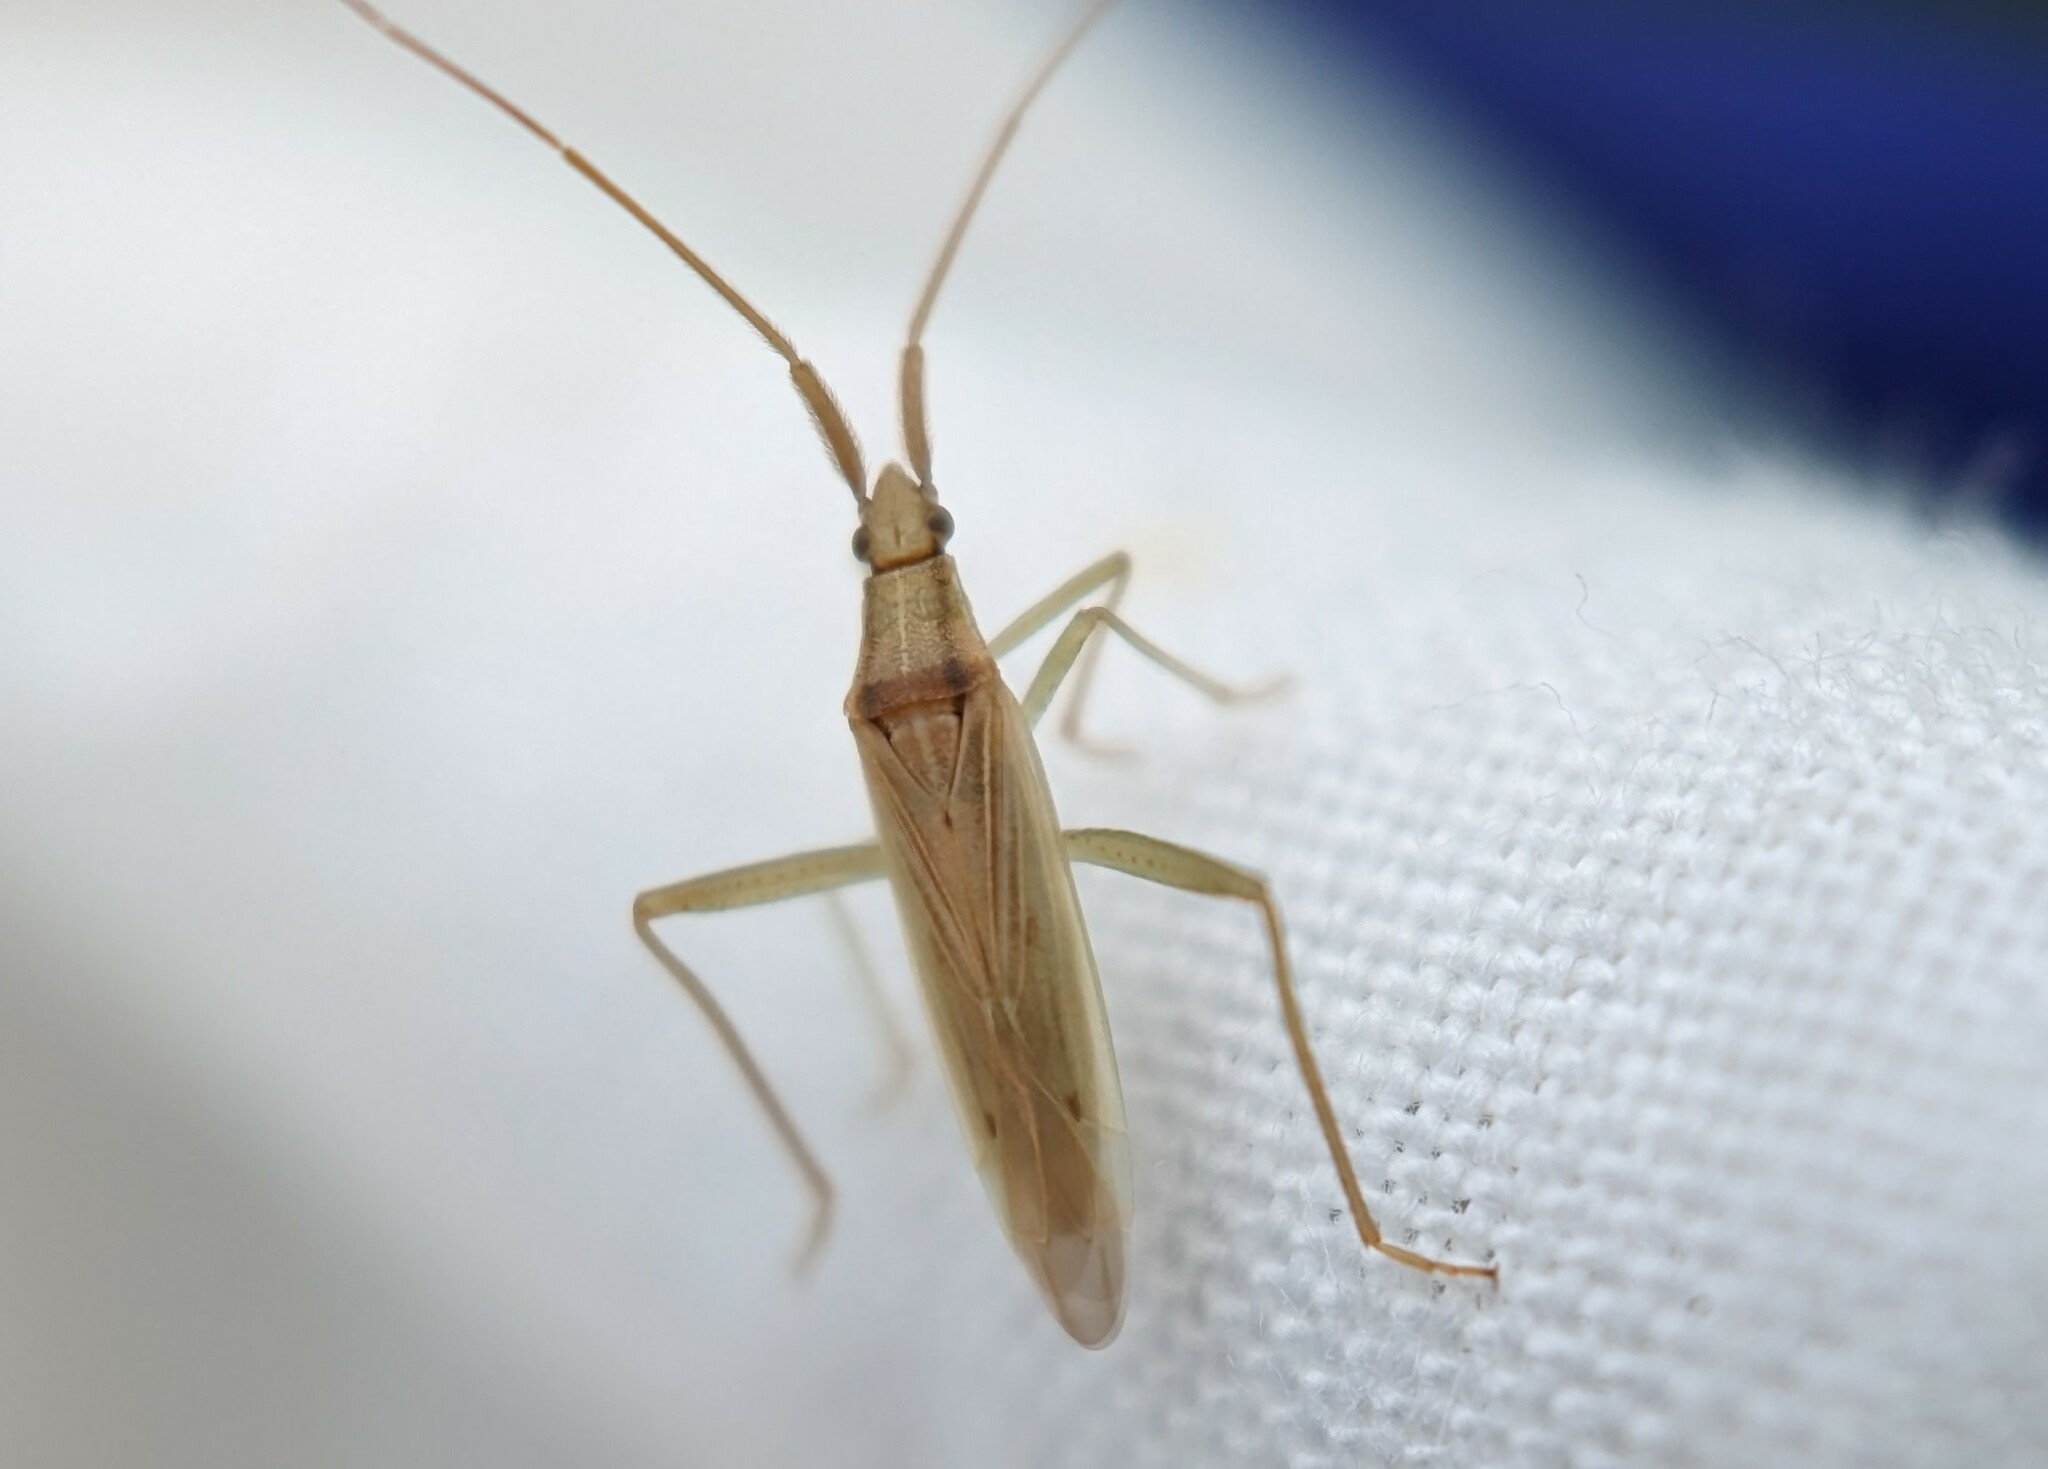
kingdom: Animalia
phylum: Arthropoda
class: Insecta
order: Hemiptera
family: Miridae
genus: Stenodema
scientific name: Stenodema laevigata
